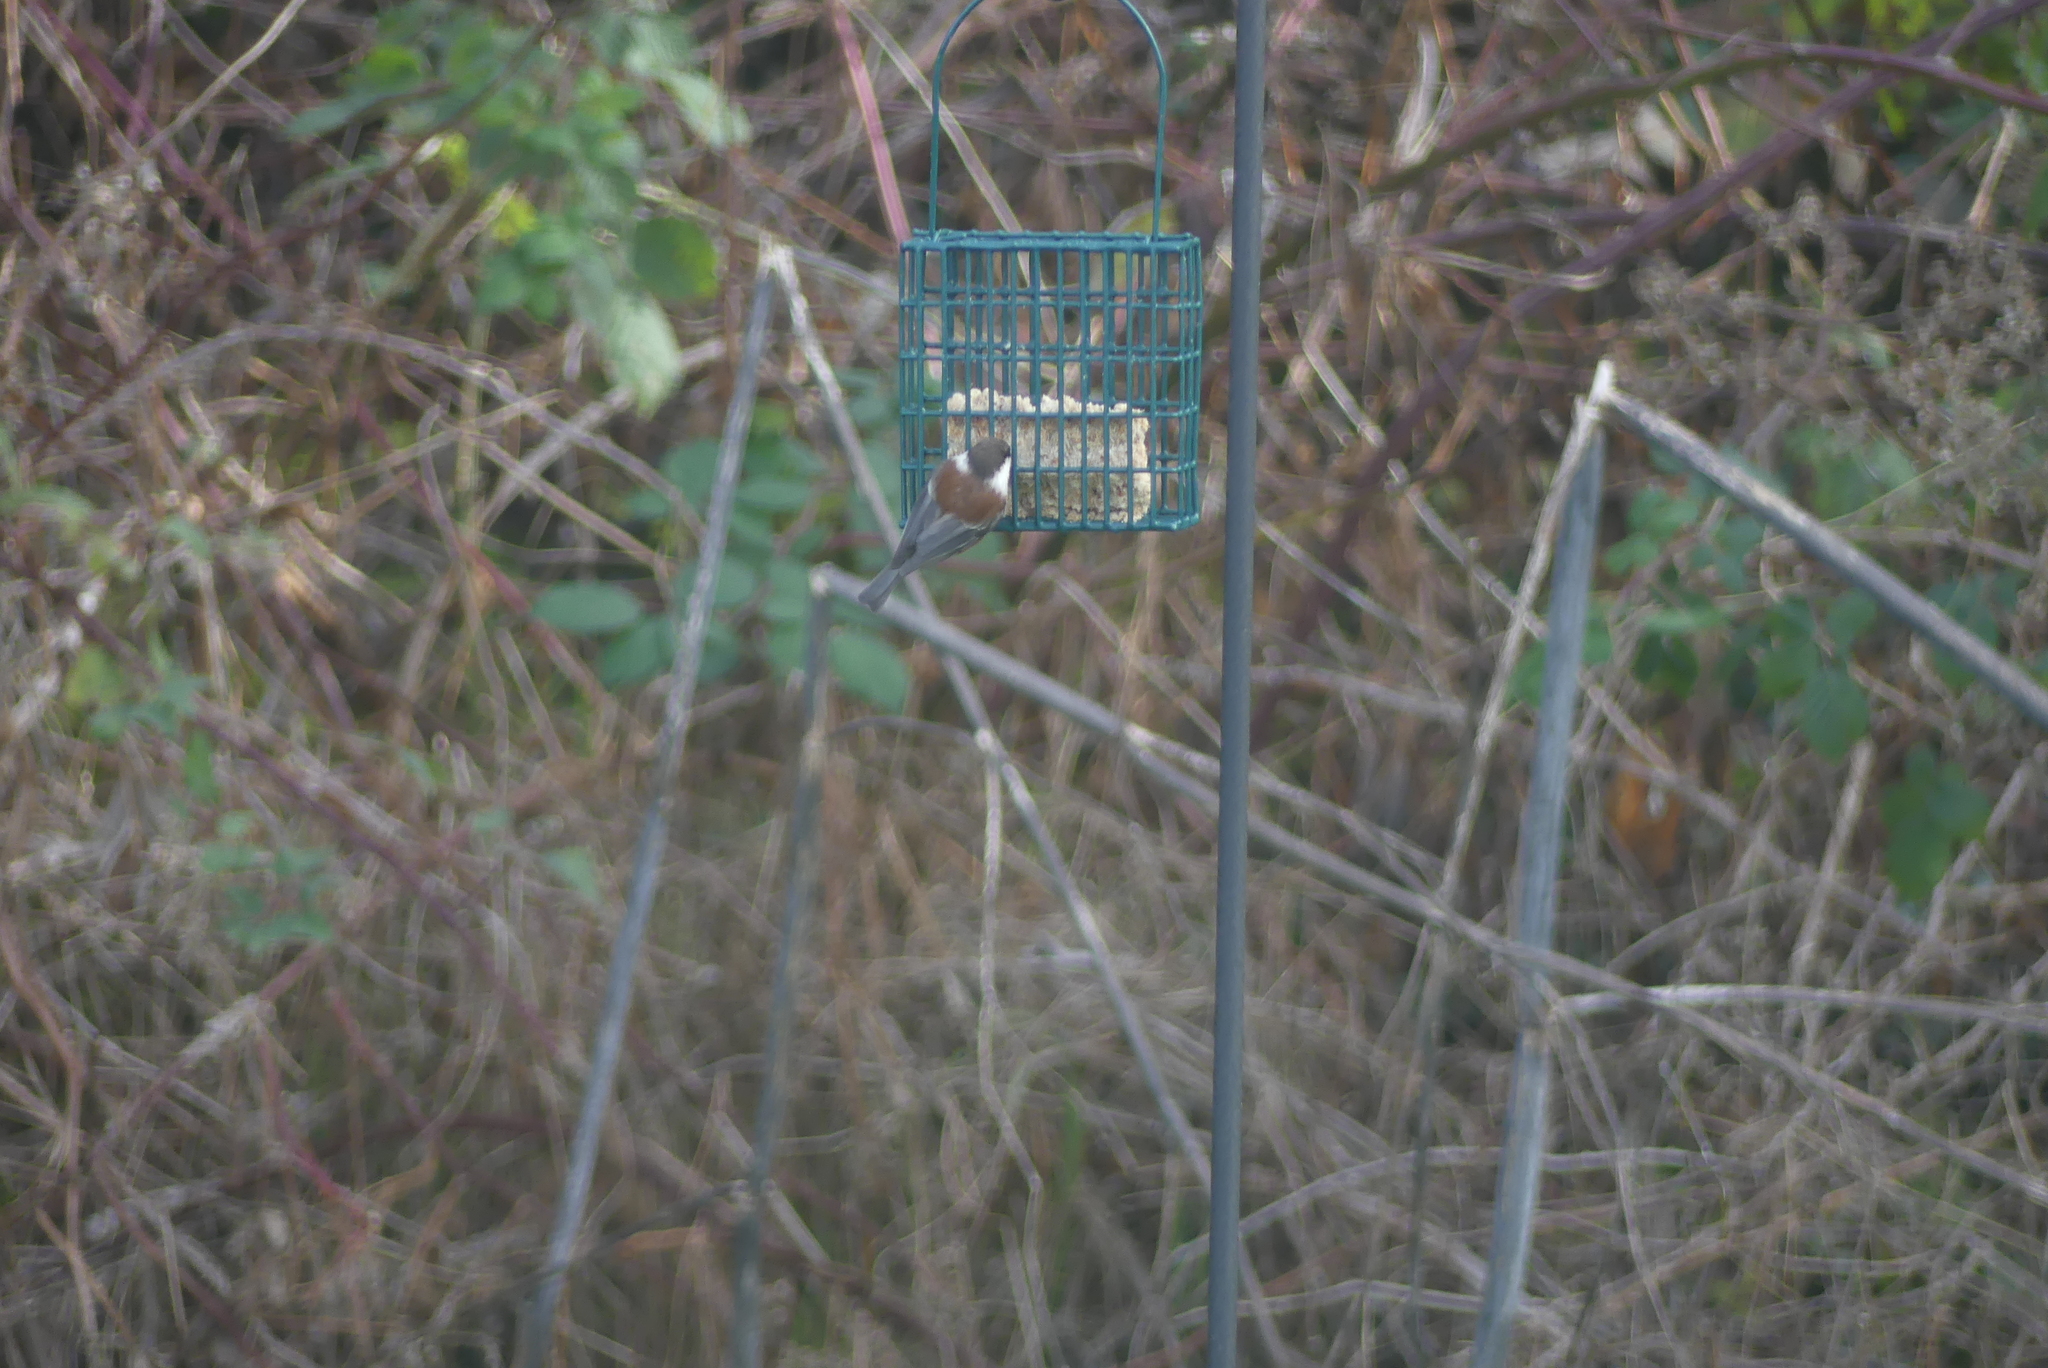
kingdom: Animalia
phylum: Chordata
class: Aves
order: Passeriformes
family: Paridae
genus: Poecile
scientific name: Poecile rufescens
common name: Chestnut-backed chickadee
